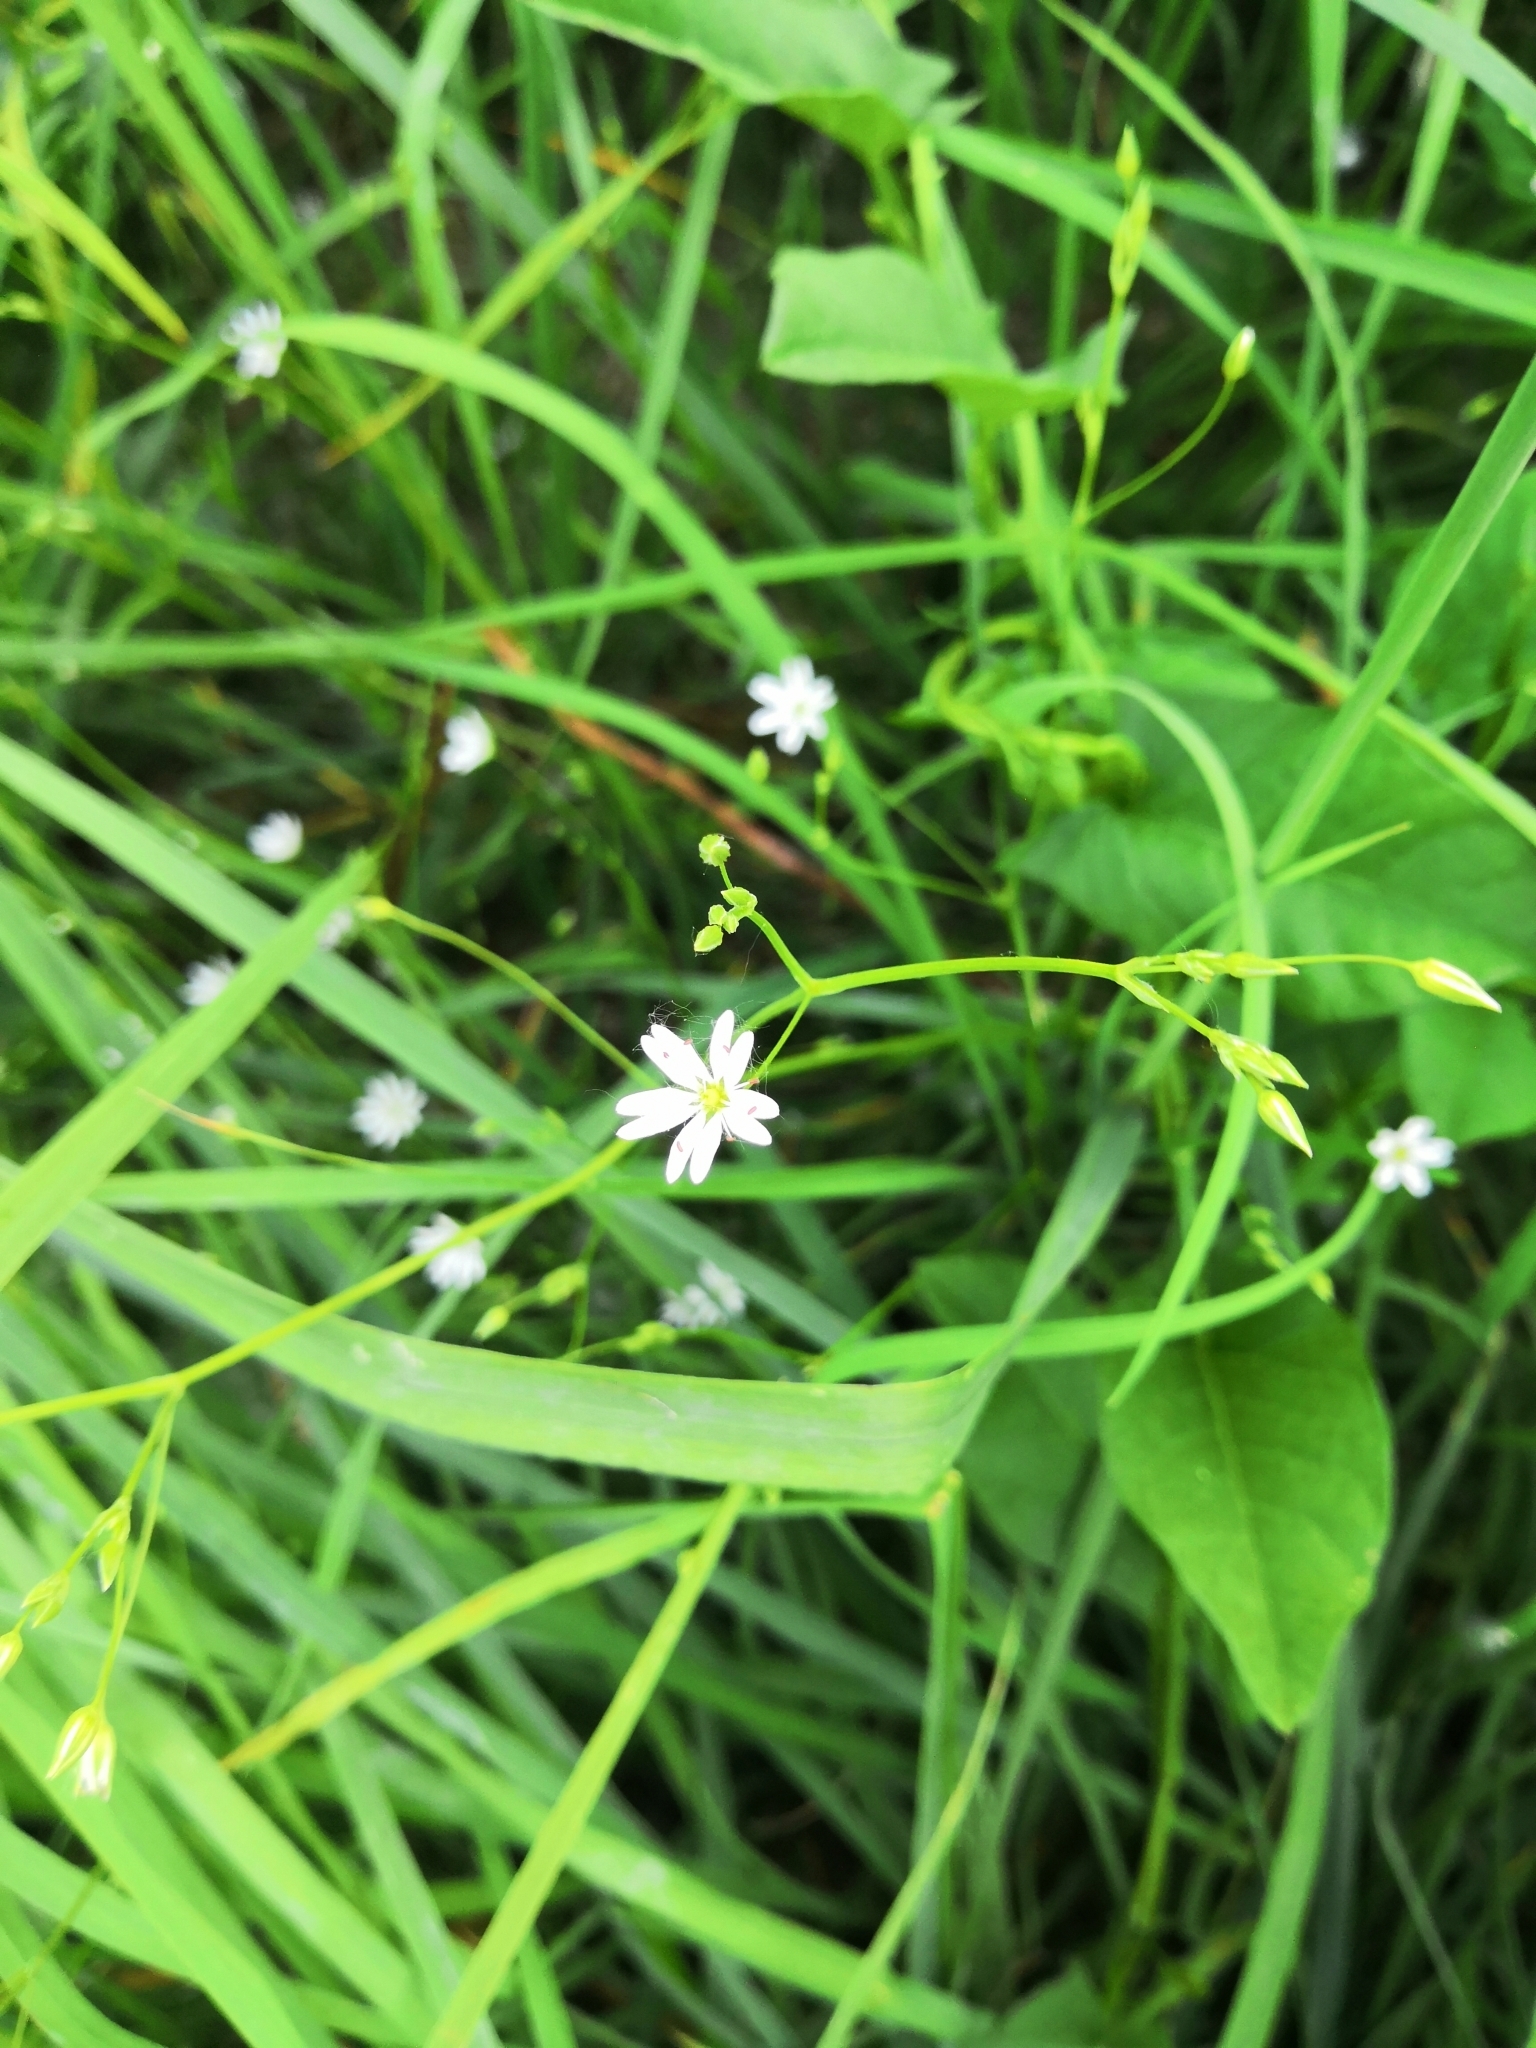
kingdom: Plantae
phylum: Tracheophyta
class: Magnoliopsida
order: Caryophyllales
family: Caryophyllaceae
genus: Stellaria
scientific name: Stellaria graminea
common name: Grass-like starwort
